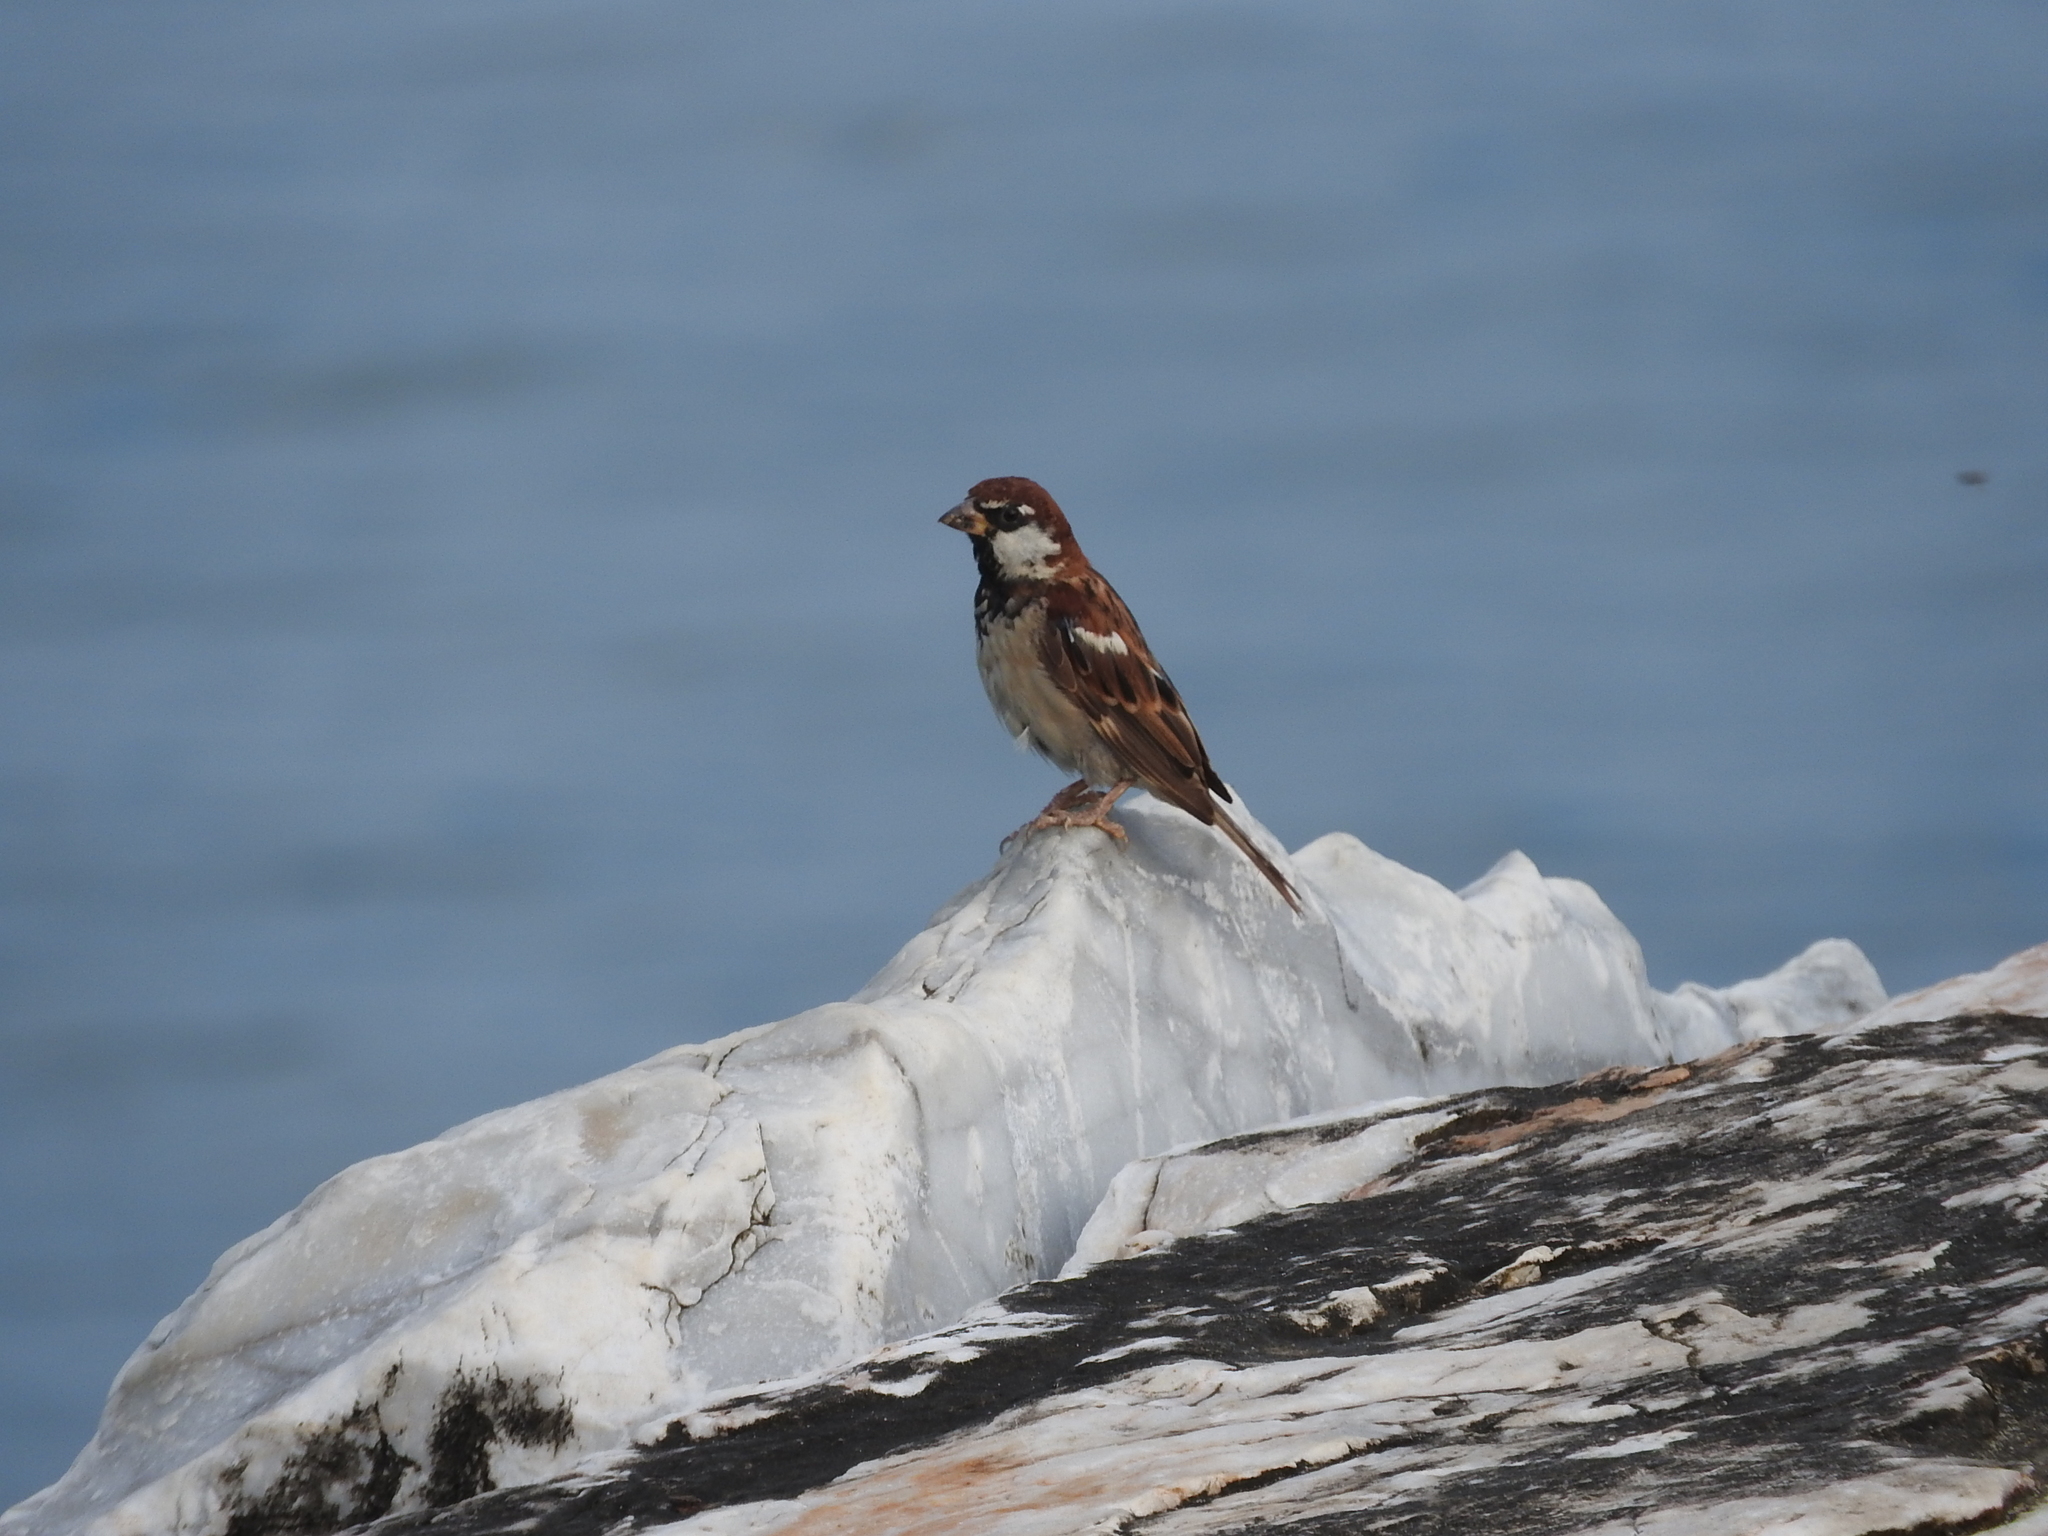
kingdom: Animalia
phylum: Chordata
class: Aves
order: Passeriformes
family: Passeridae
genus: Passer
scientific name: Passer italiae
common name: Italian sparrow
